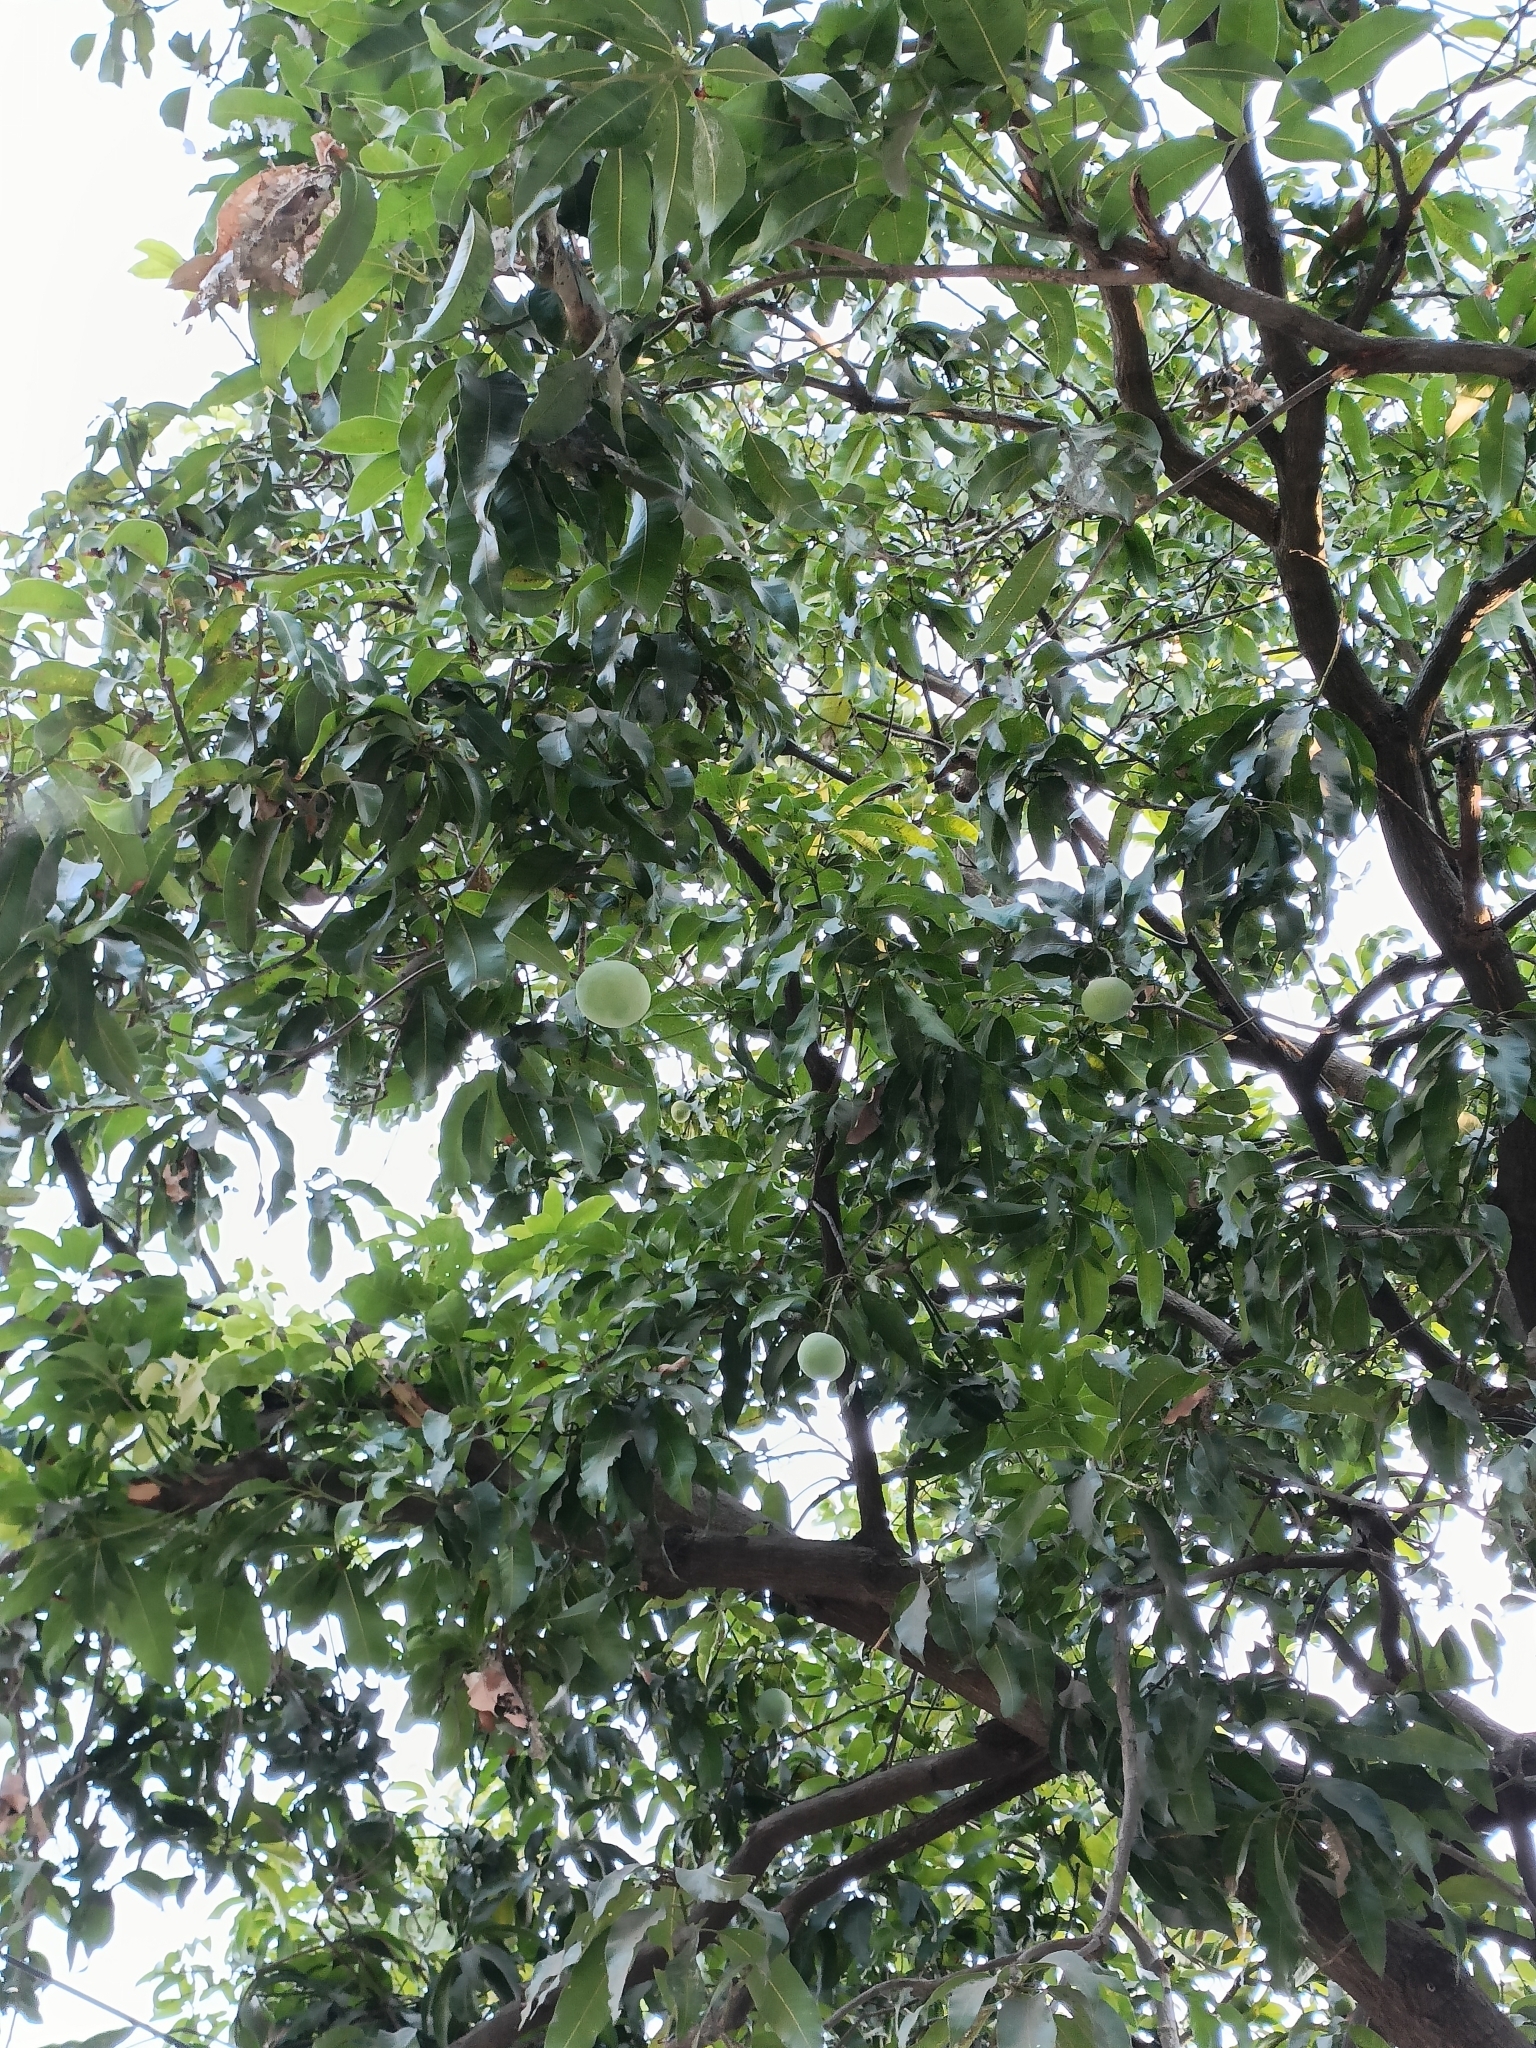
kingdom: Plantae
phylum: Tracheophyta
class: Magnoliopsida
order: Sapindales
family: Anacardiaceae
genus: Mangifera
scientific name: Mangifera indica
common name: Mango
